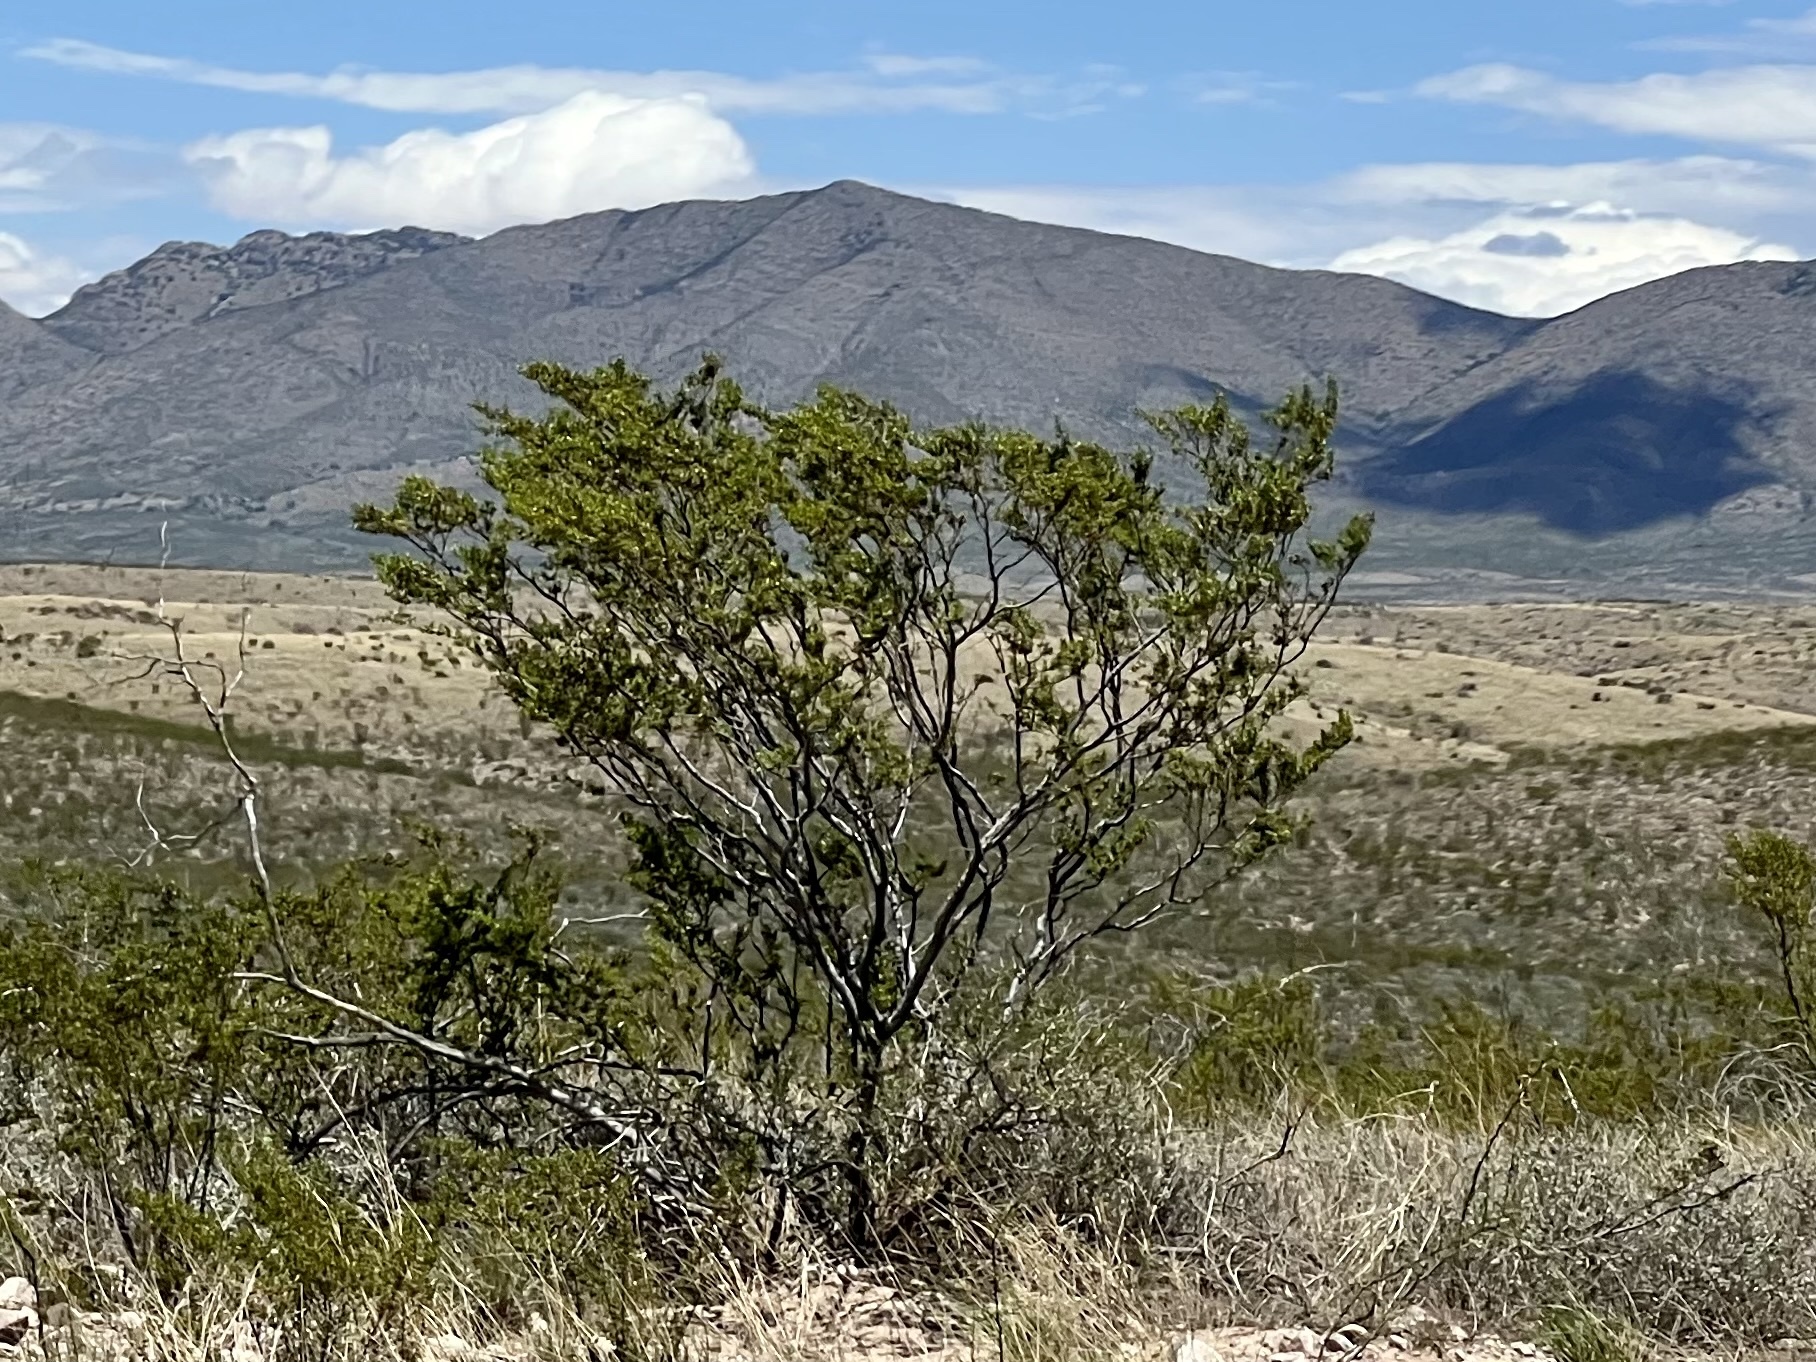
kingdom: Plantae
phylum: Tracheophyta
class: Magnoliopsida
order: Zygophyllales
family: Zygophyllaceae
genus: Larrea
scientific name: Larrea tridentata
